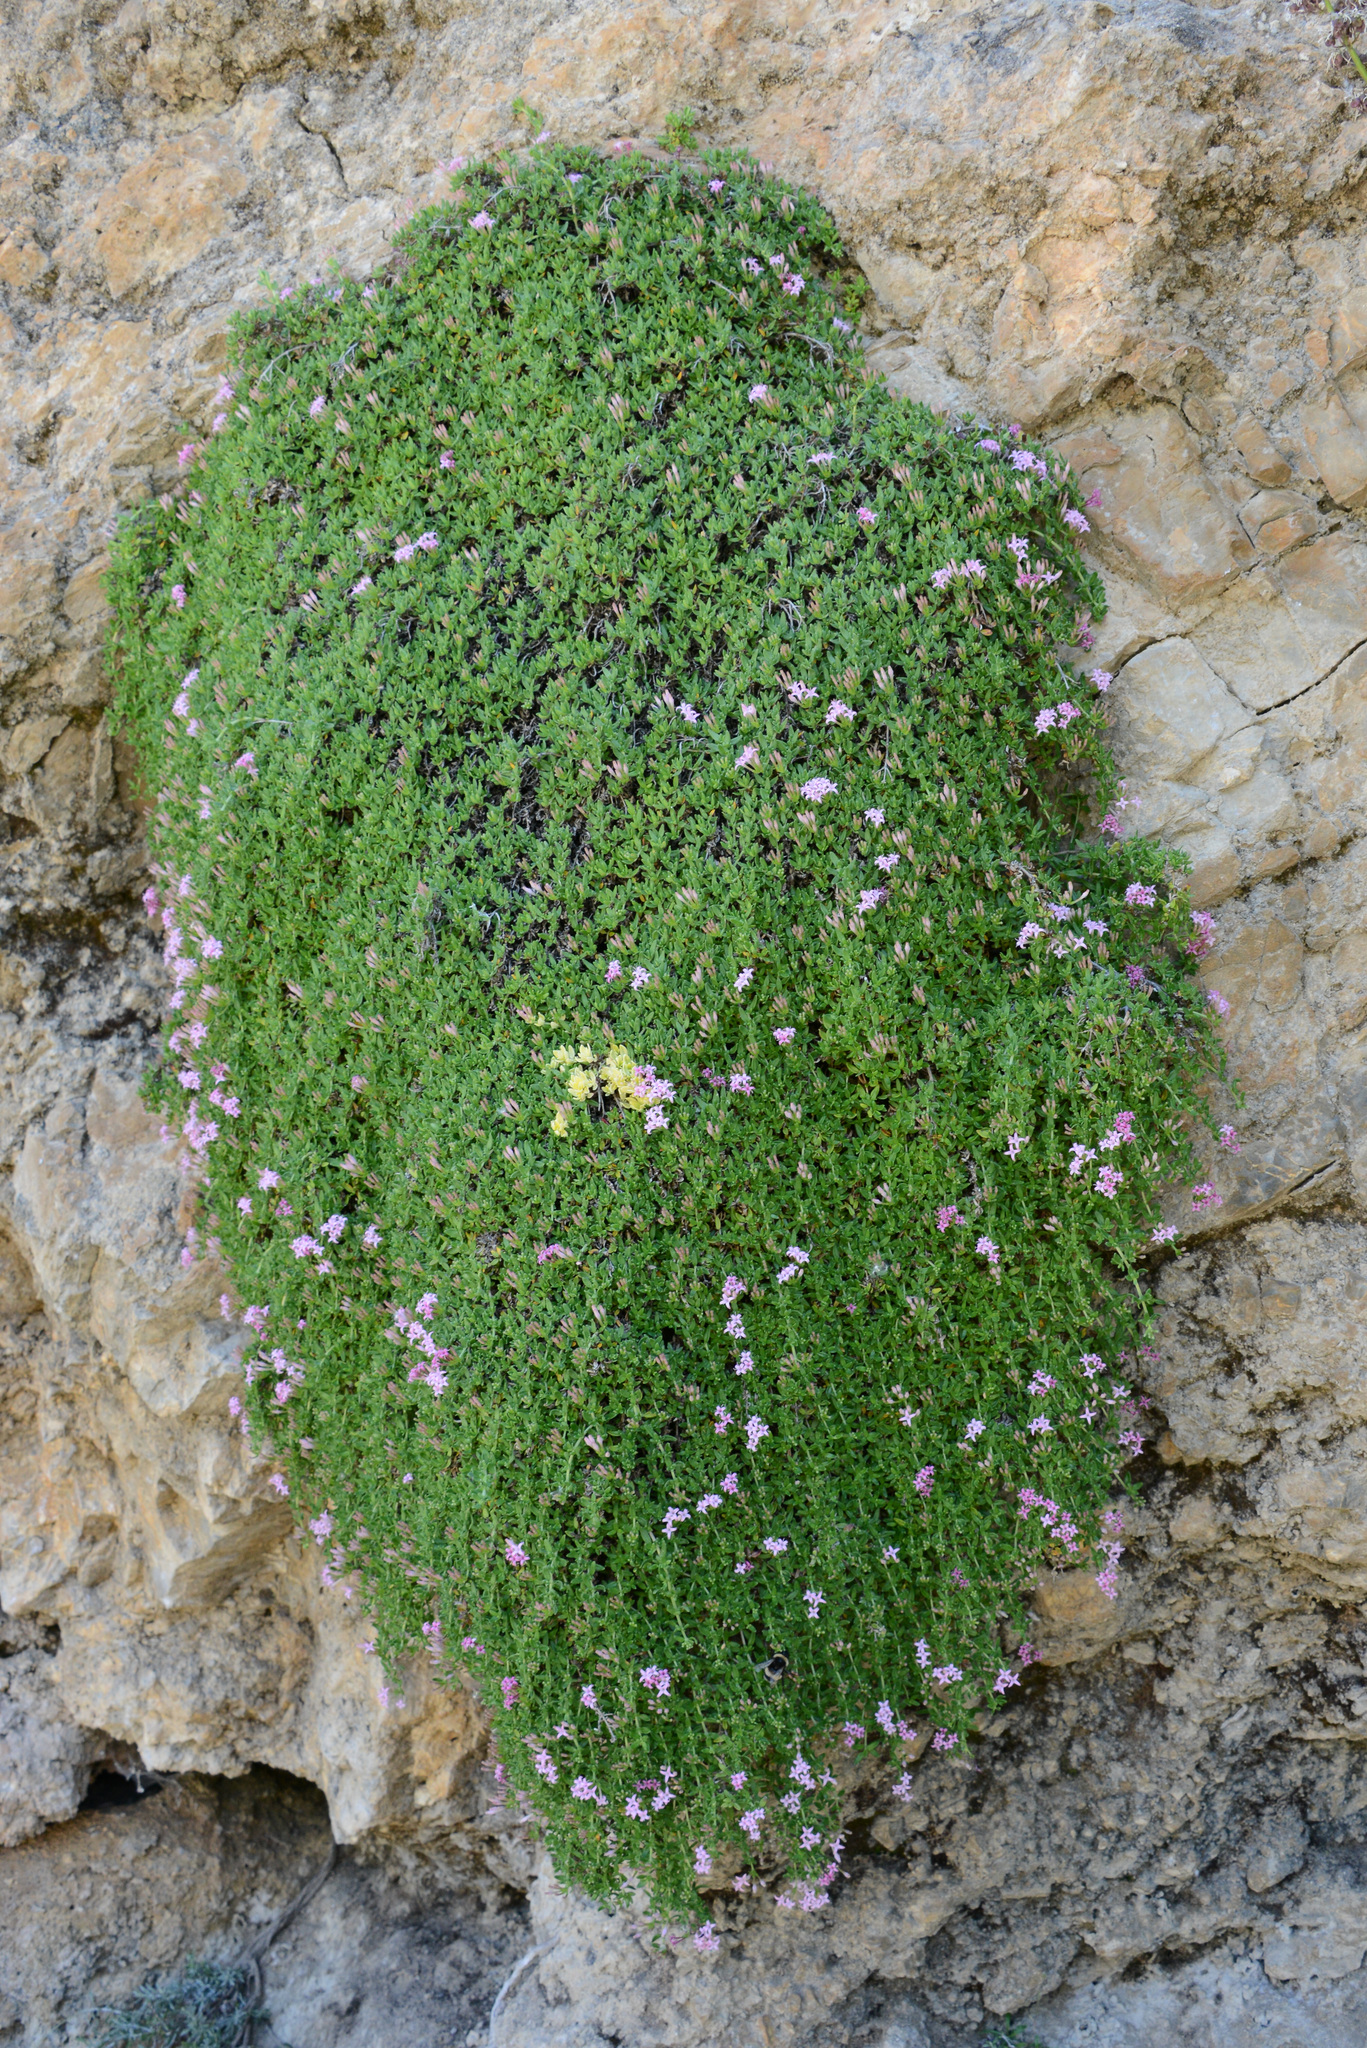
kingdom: Plantae
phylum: Tracheophyta
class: Magnoliopsida
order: Gentianales
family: Rubiaceae
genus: Plocama
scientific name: Plocama calabrica
